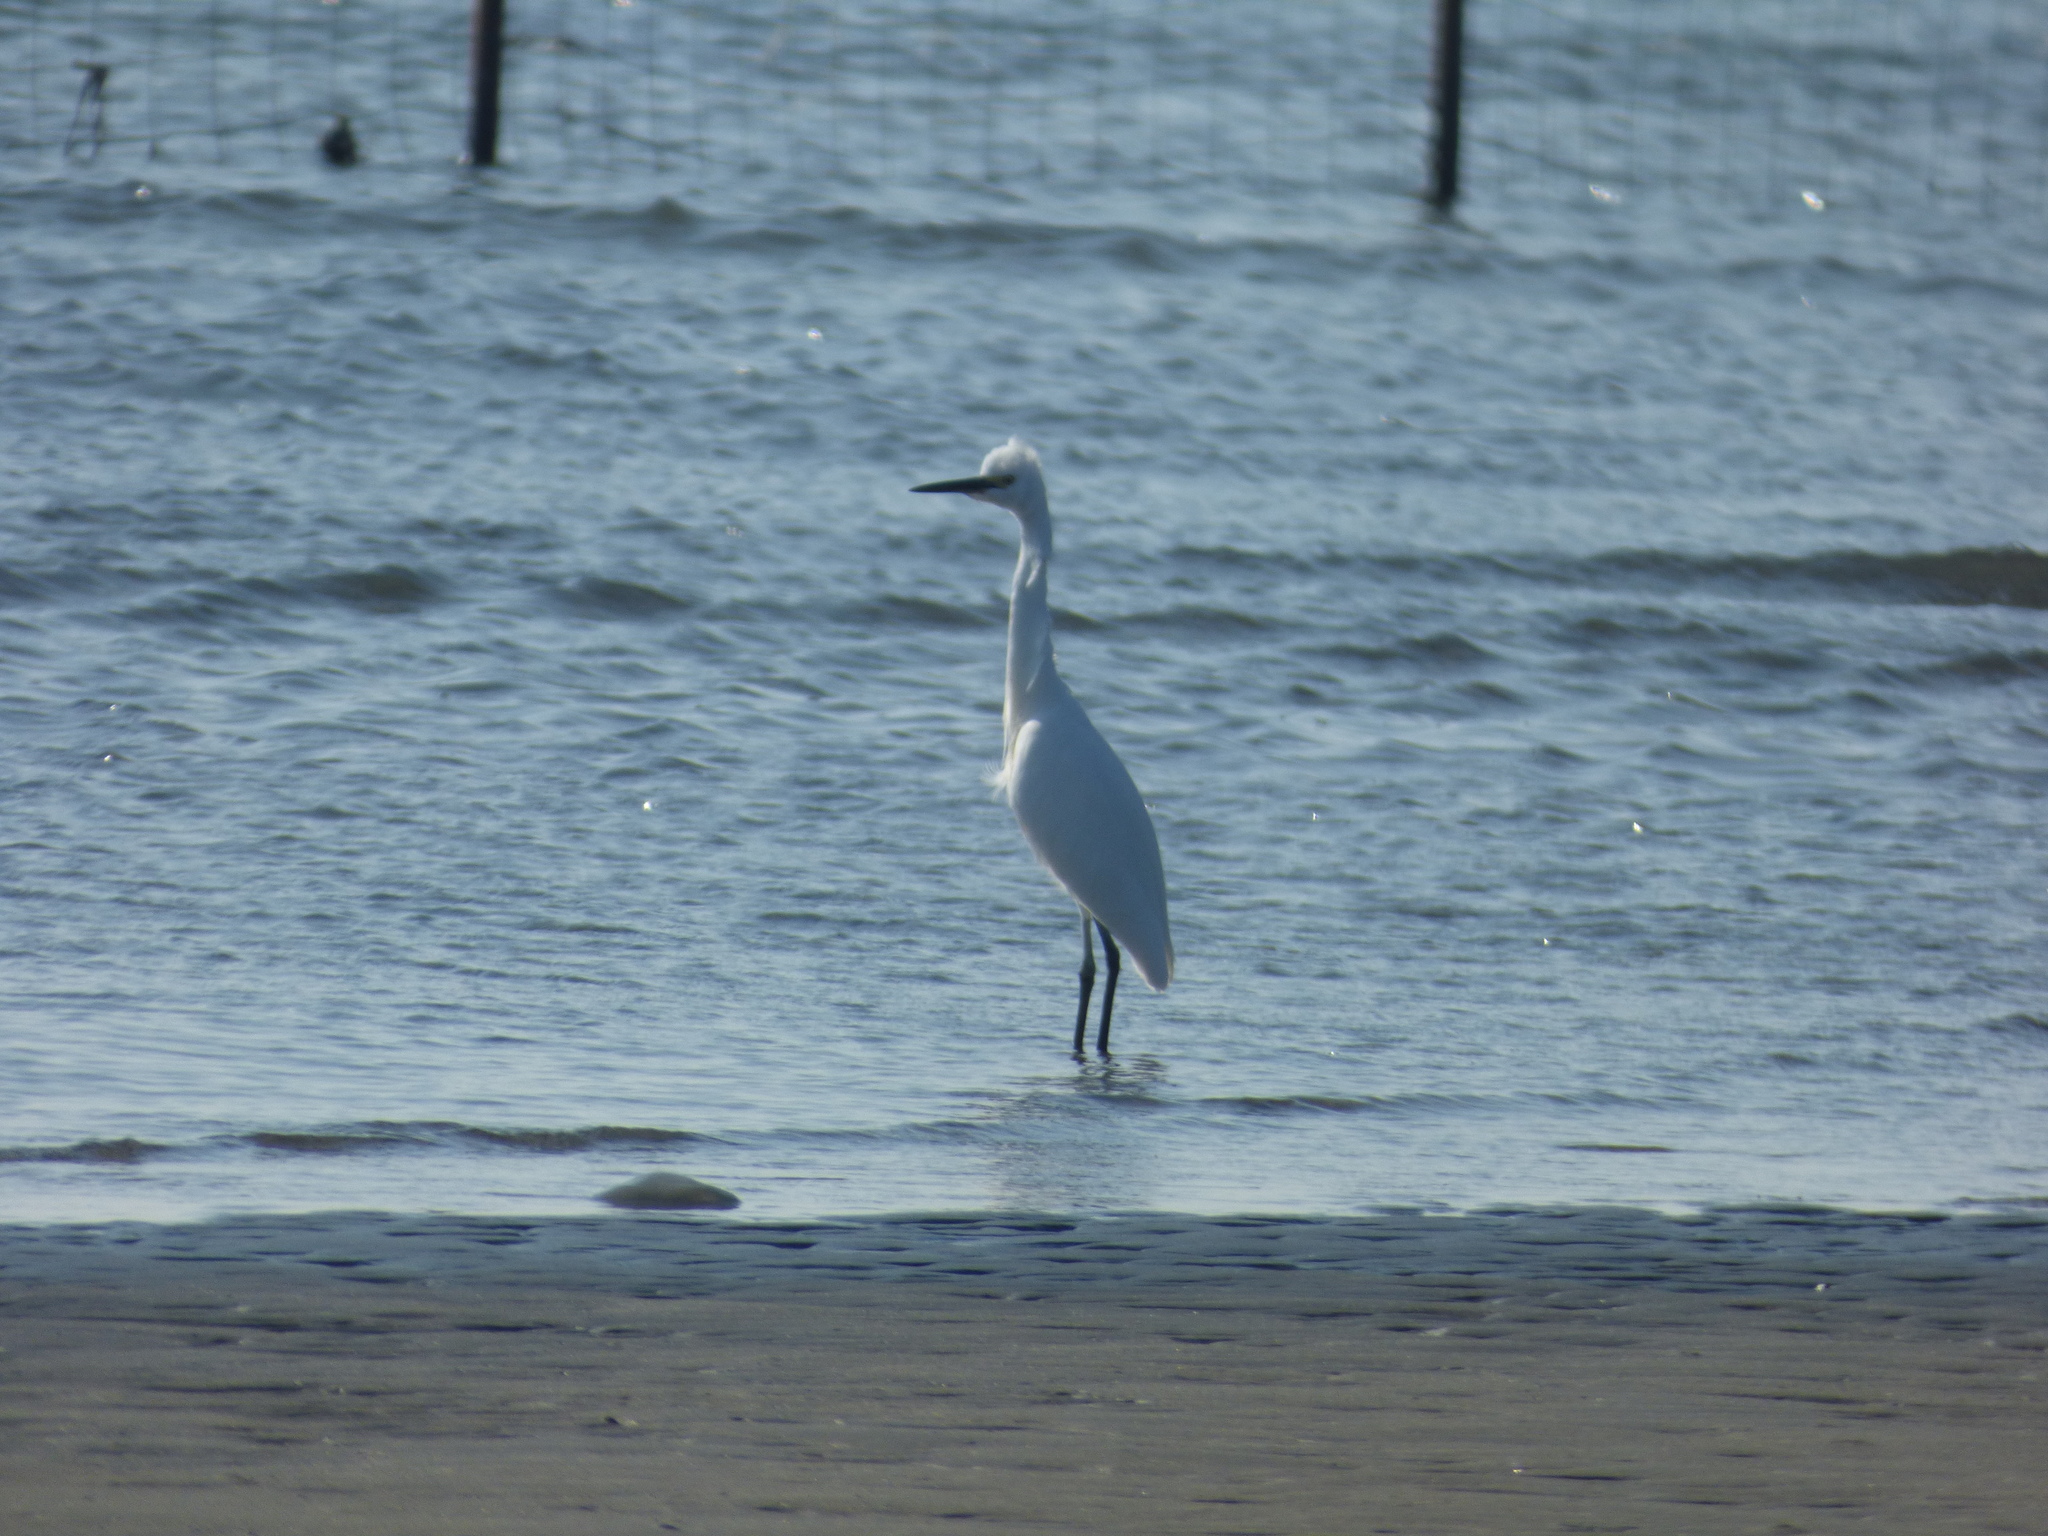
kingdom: Animalia
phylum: Chordata
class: Aves
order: Pelecaniformes
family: Ardeidae
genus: Egretta
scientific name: Egretta garzetta
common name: Little egret
